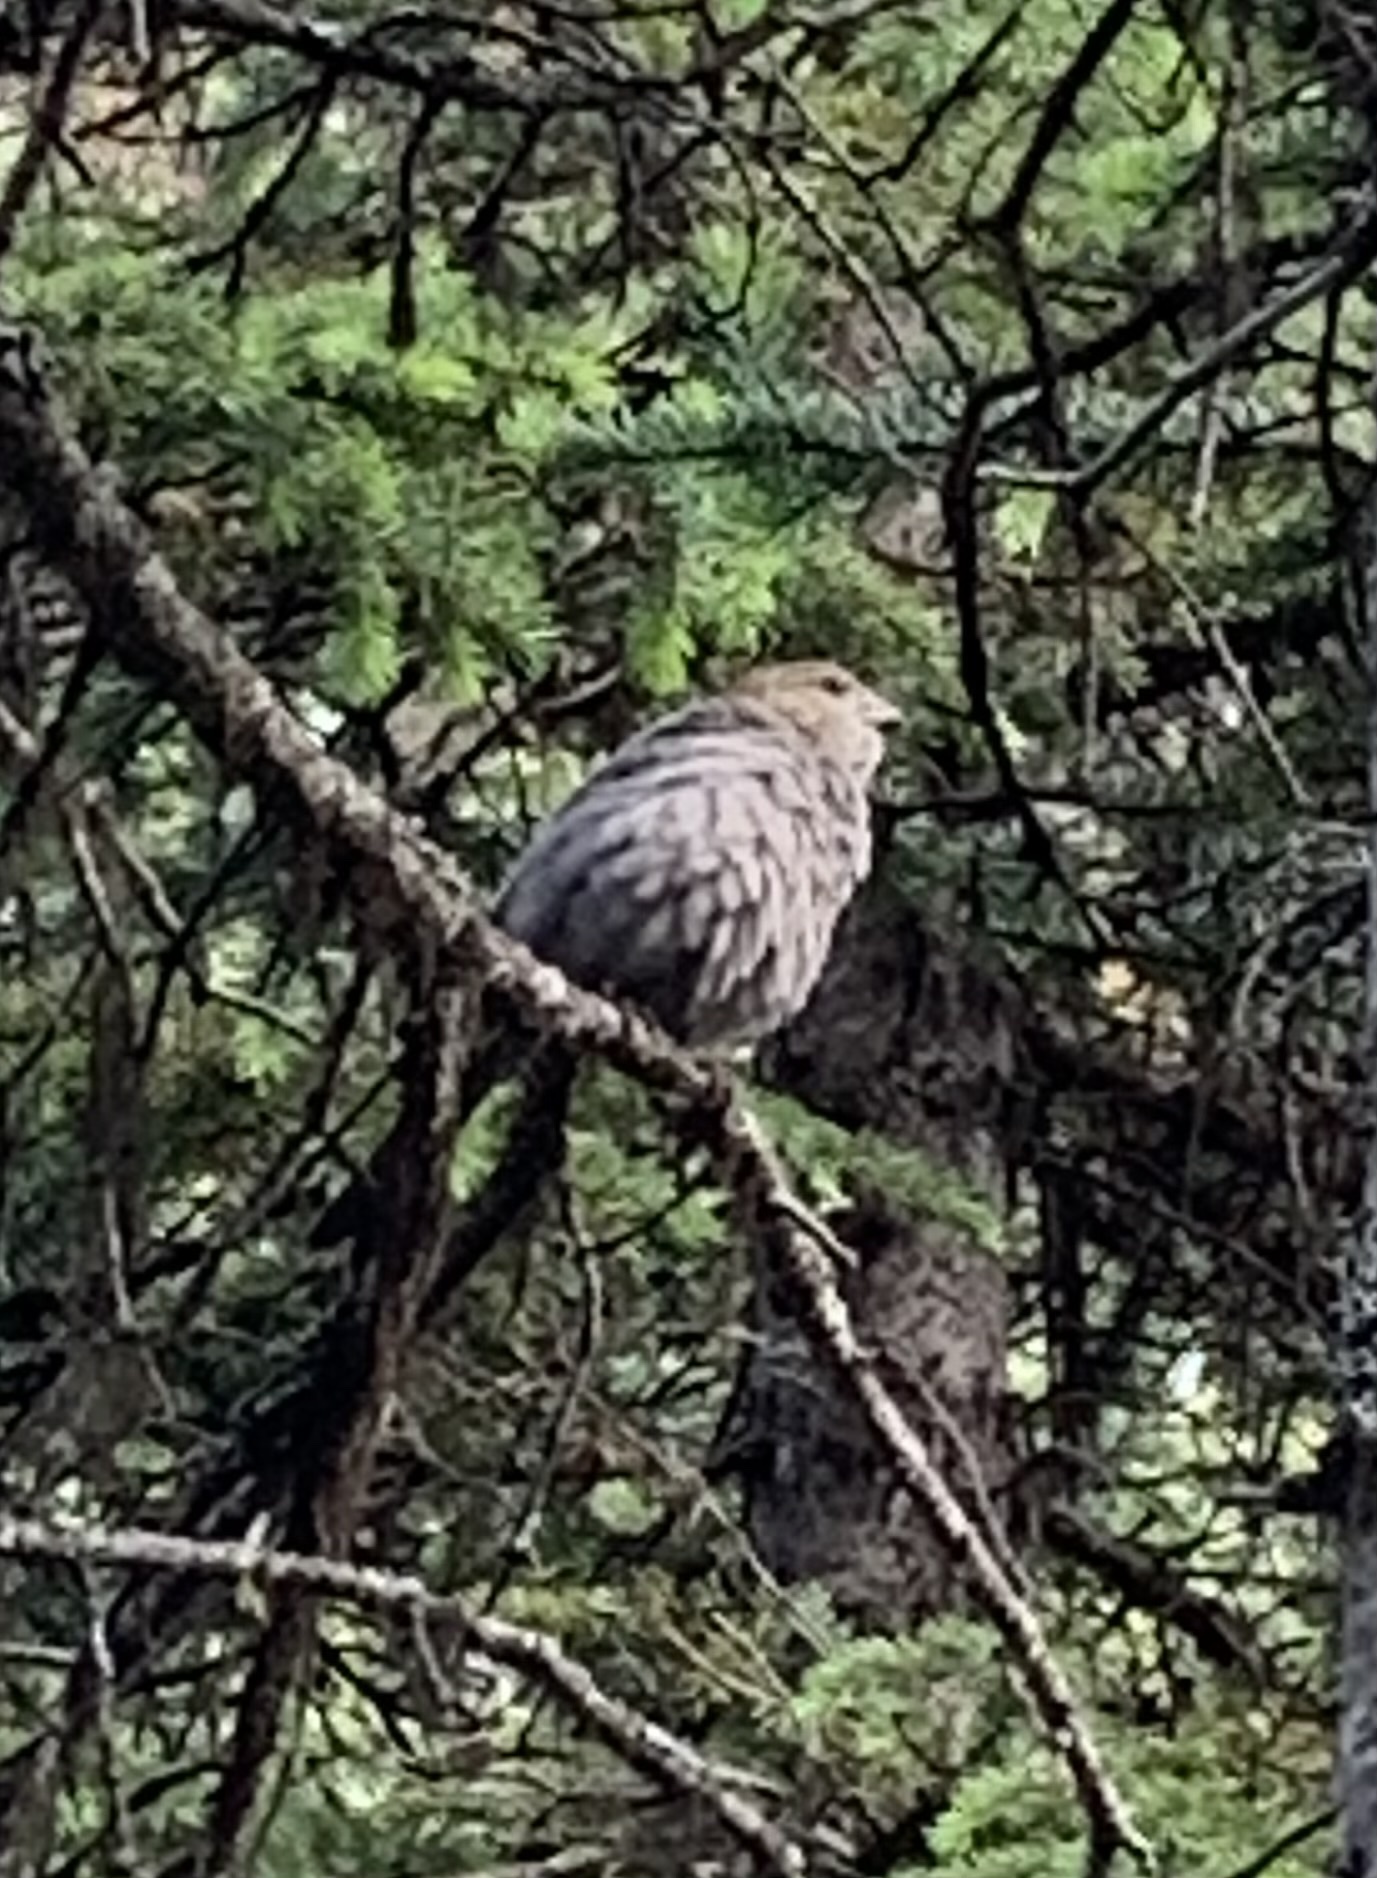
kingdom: Animalia
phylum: Chordata
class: Aves
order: Passeriformes
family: Fringillidae
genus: Pinicola
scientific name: Pinicola enucleator
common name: Pine grosbeak
